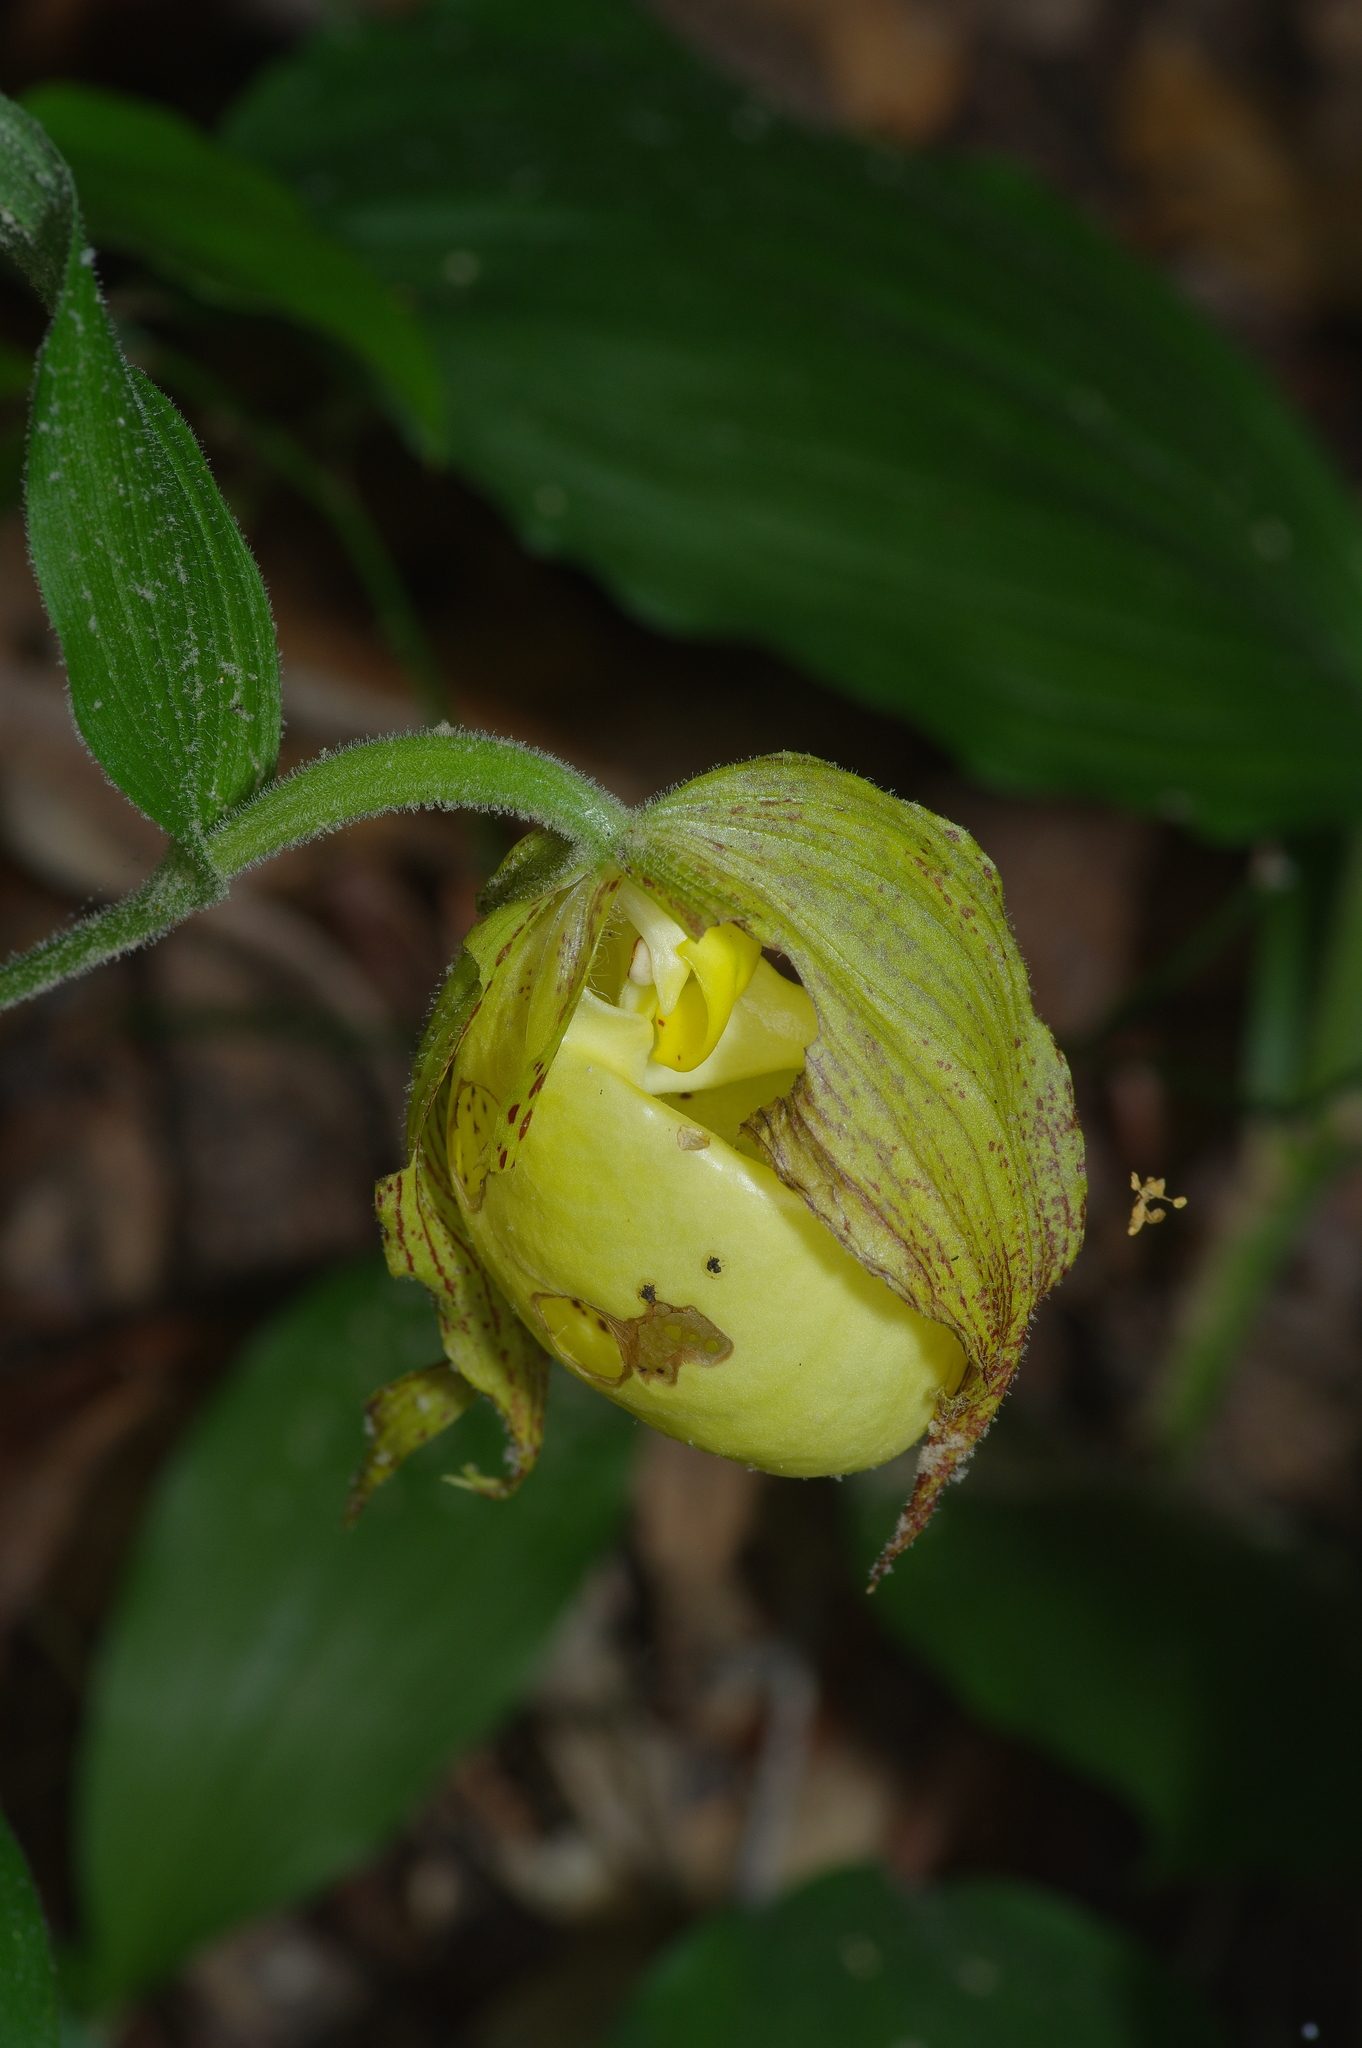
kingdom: Plantae
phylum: Tracheophyta
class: Liliopsida
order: Asparagales
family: Orchidaceae
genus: Cypripedium
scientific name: Cypripedium kentuckiense
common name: Kentucky lady's slipper
